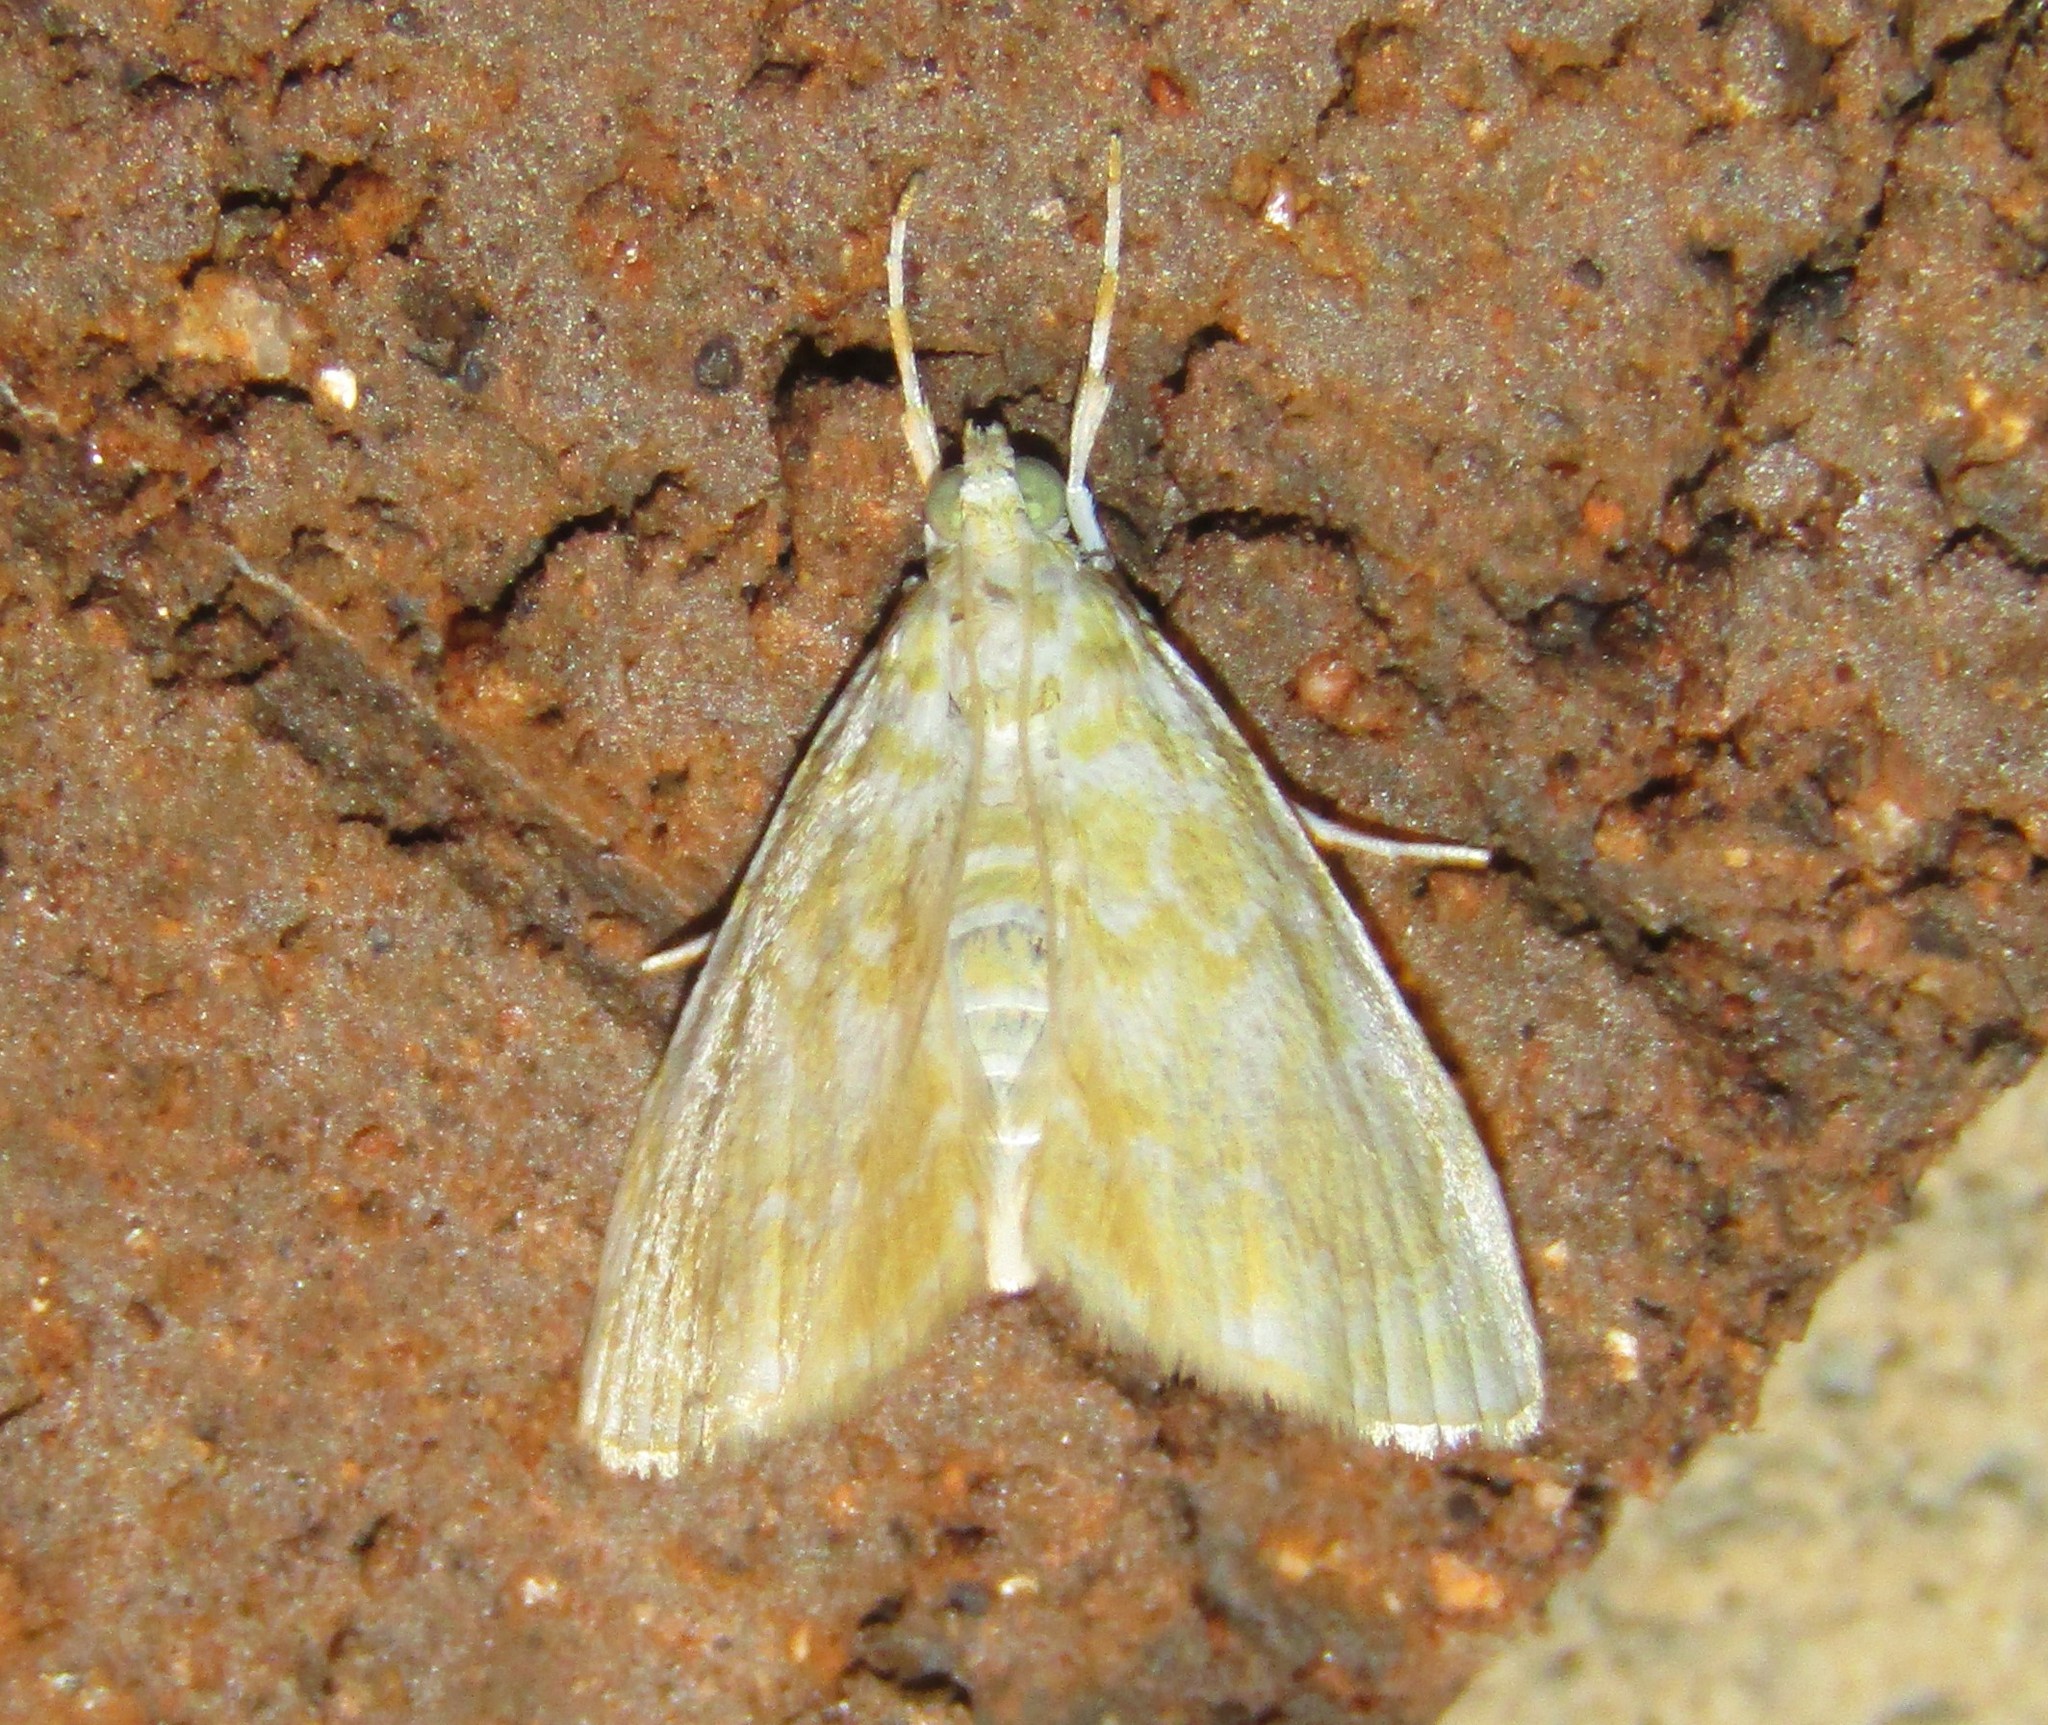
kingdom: Animalia
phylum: Arthropoda
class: Insecta
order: Lepidoptera
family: Crambidae
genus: Glaphyria
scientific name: Glaphyria glaphyralis
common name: Common glaphyria moth
